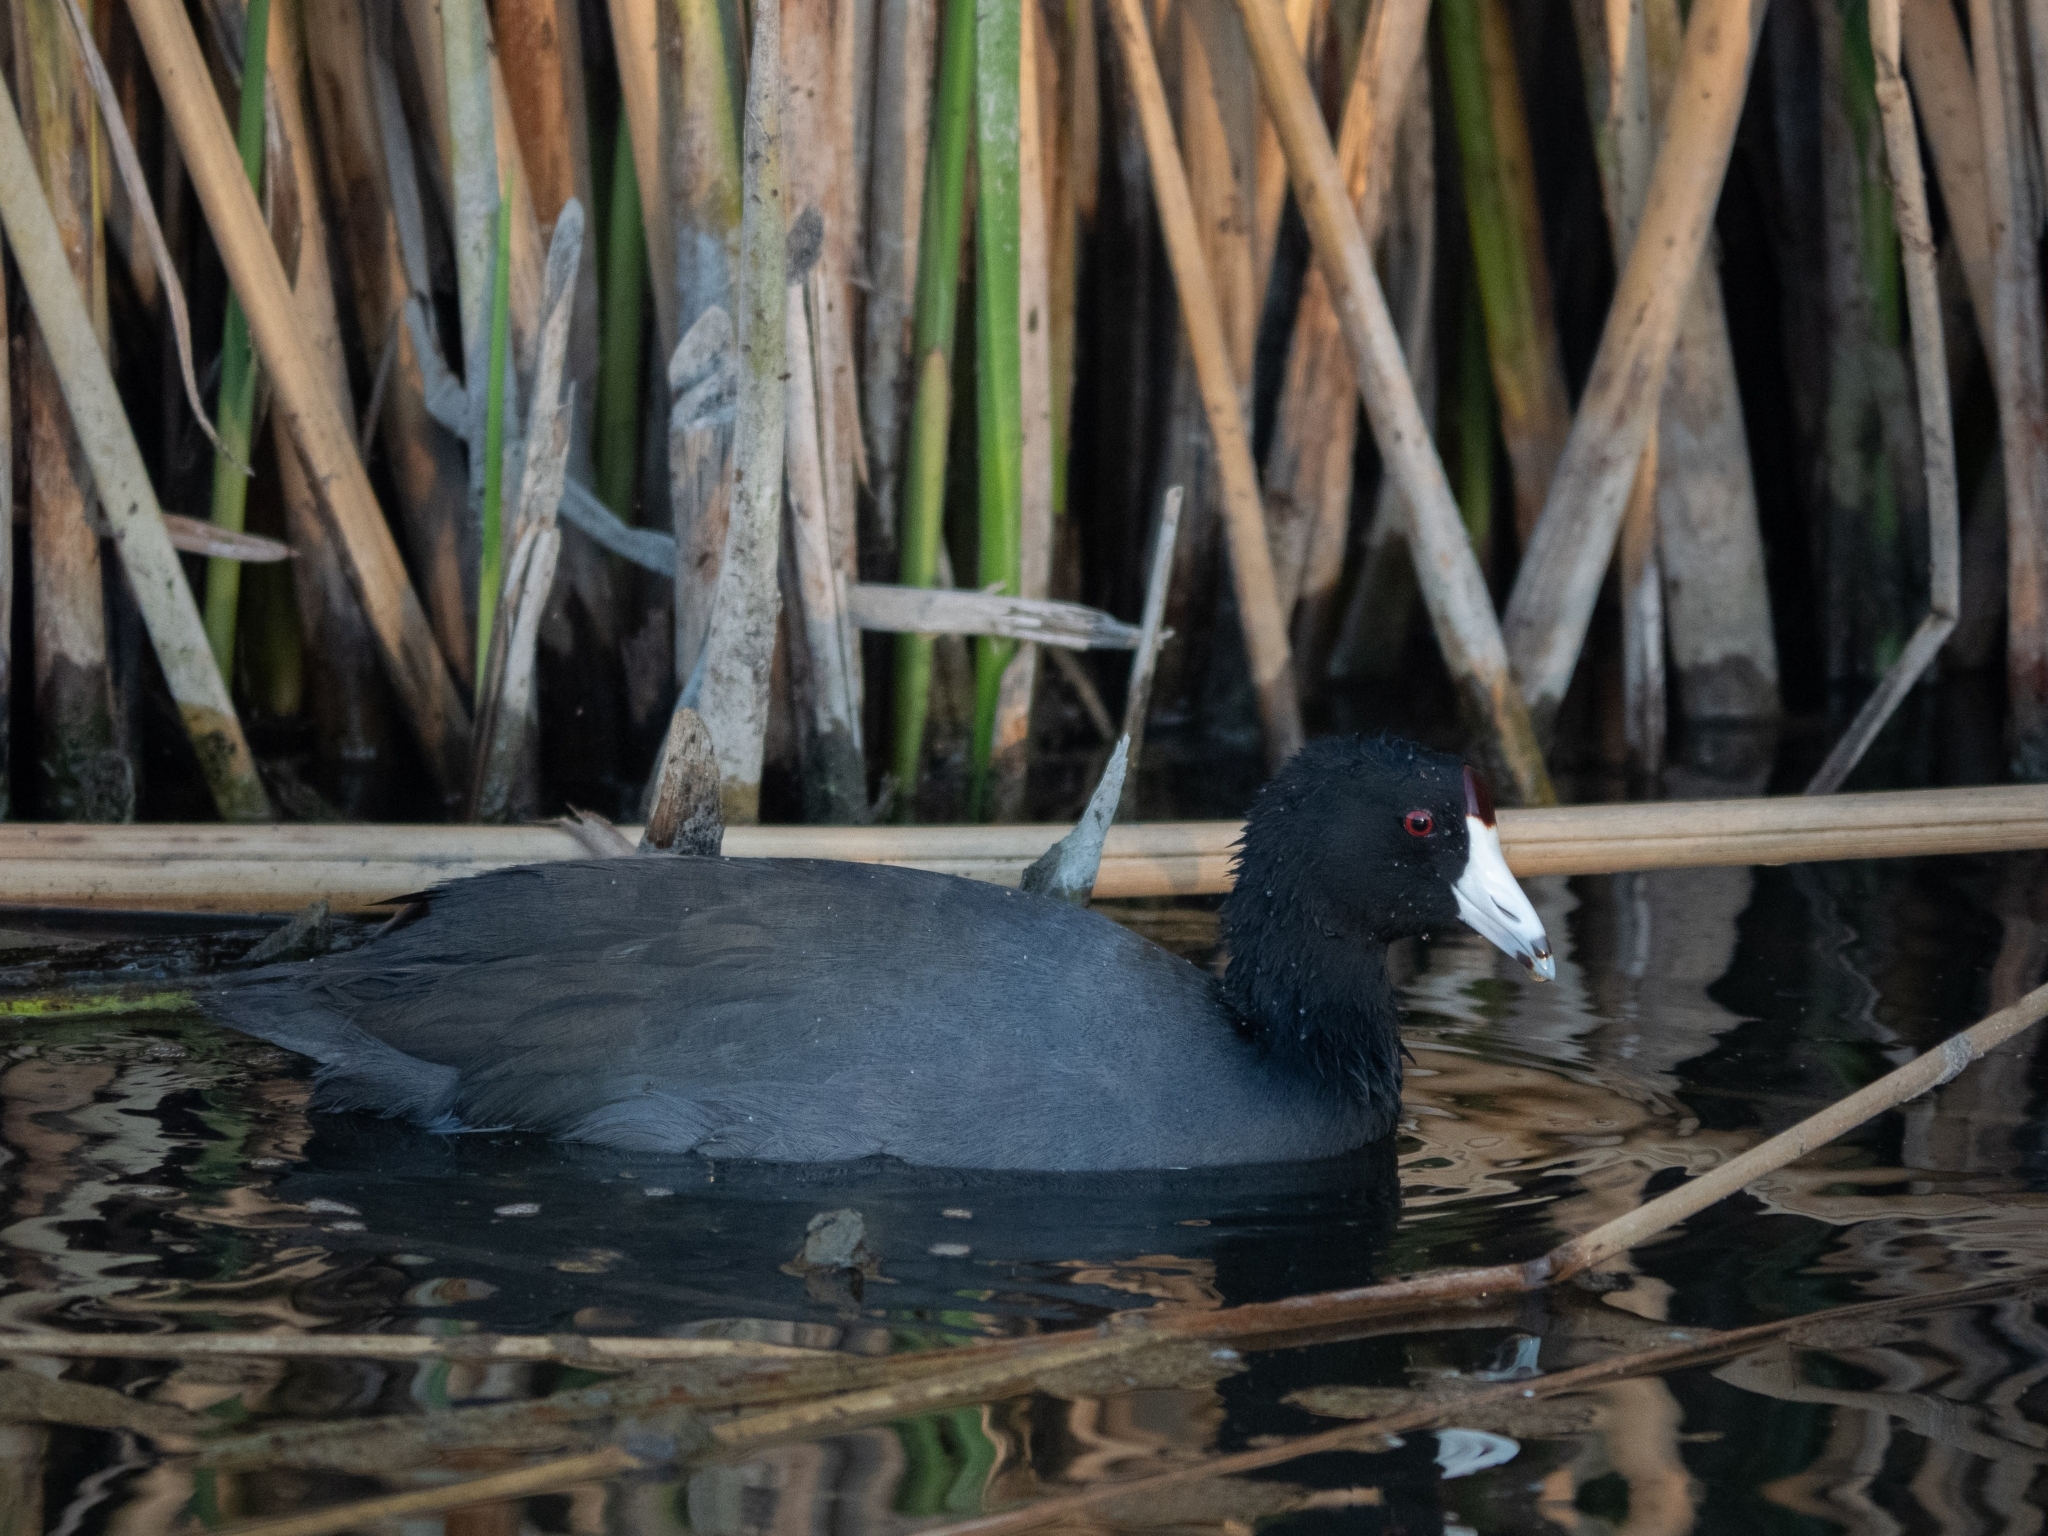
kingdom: Animalia
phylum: Chordata
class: Aves
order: Gruiformes
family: Rallidae
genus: Fulica
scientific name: Fulica americana
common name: American coot
